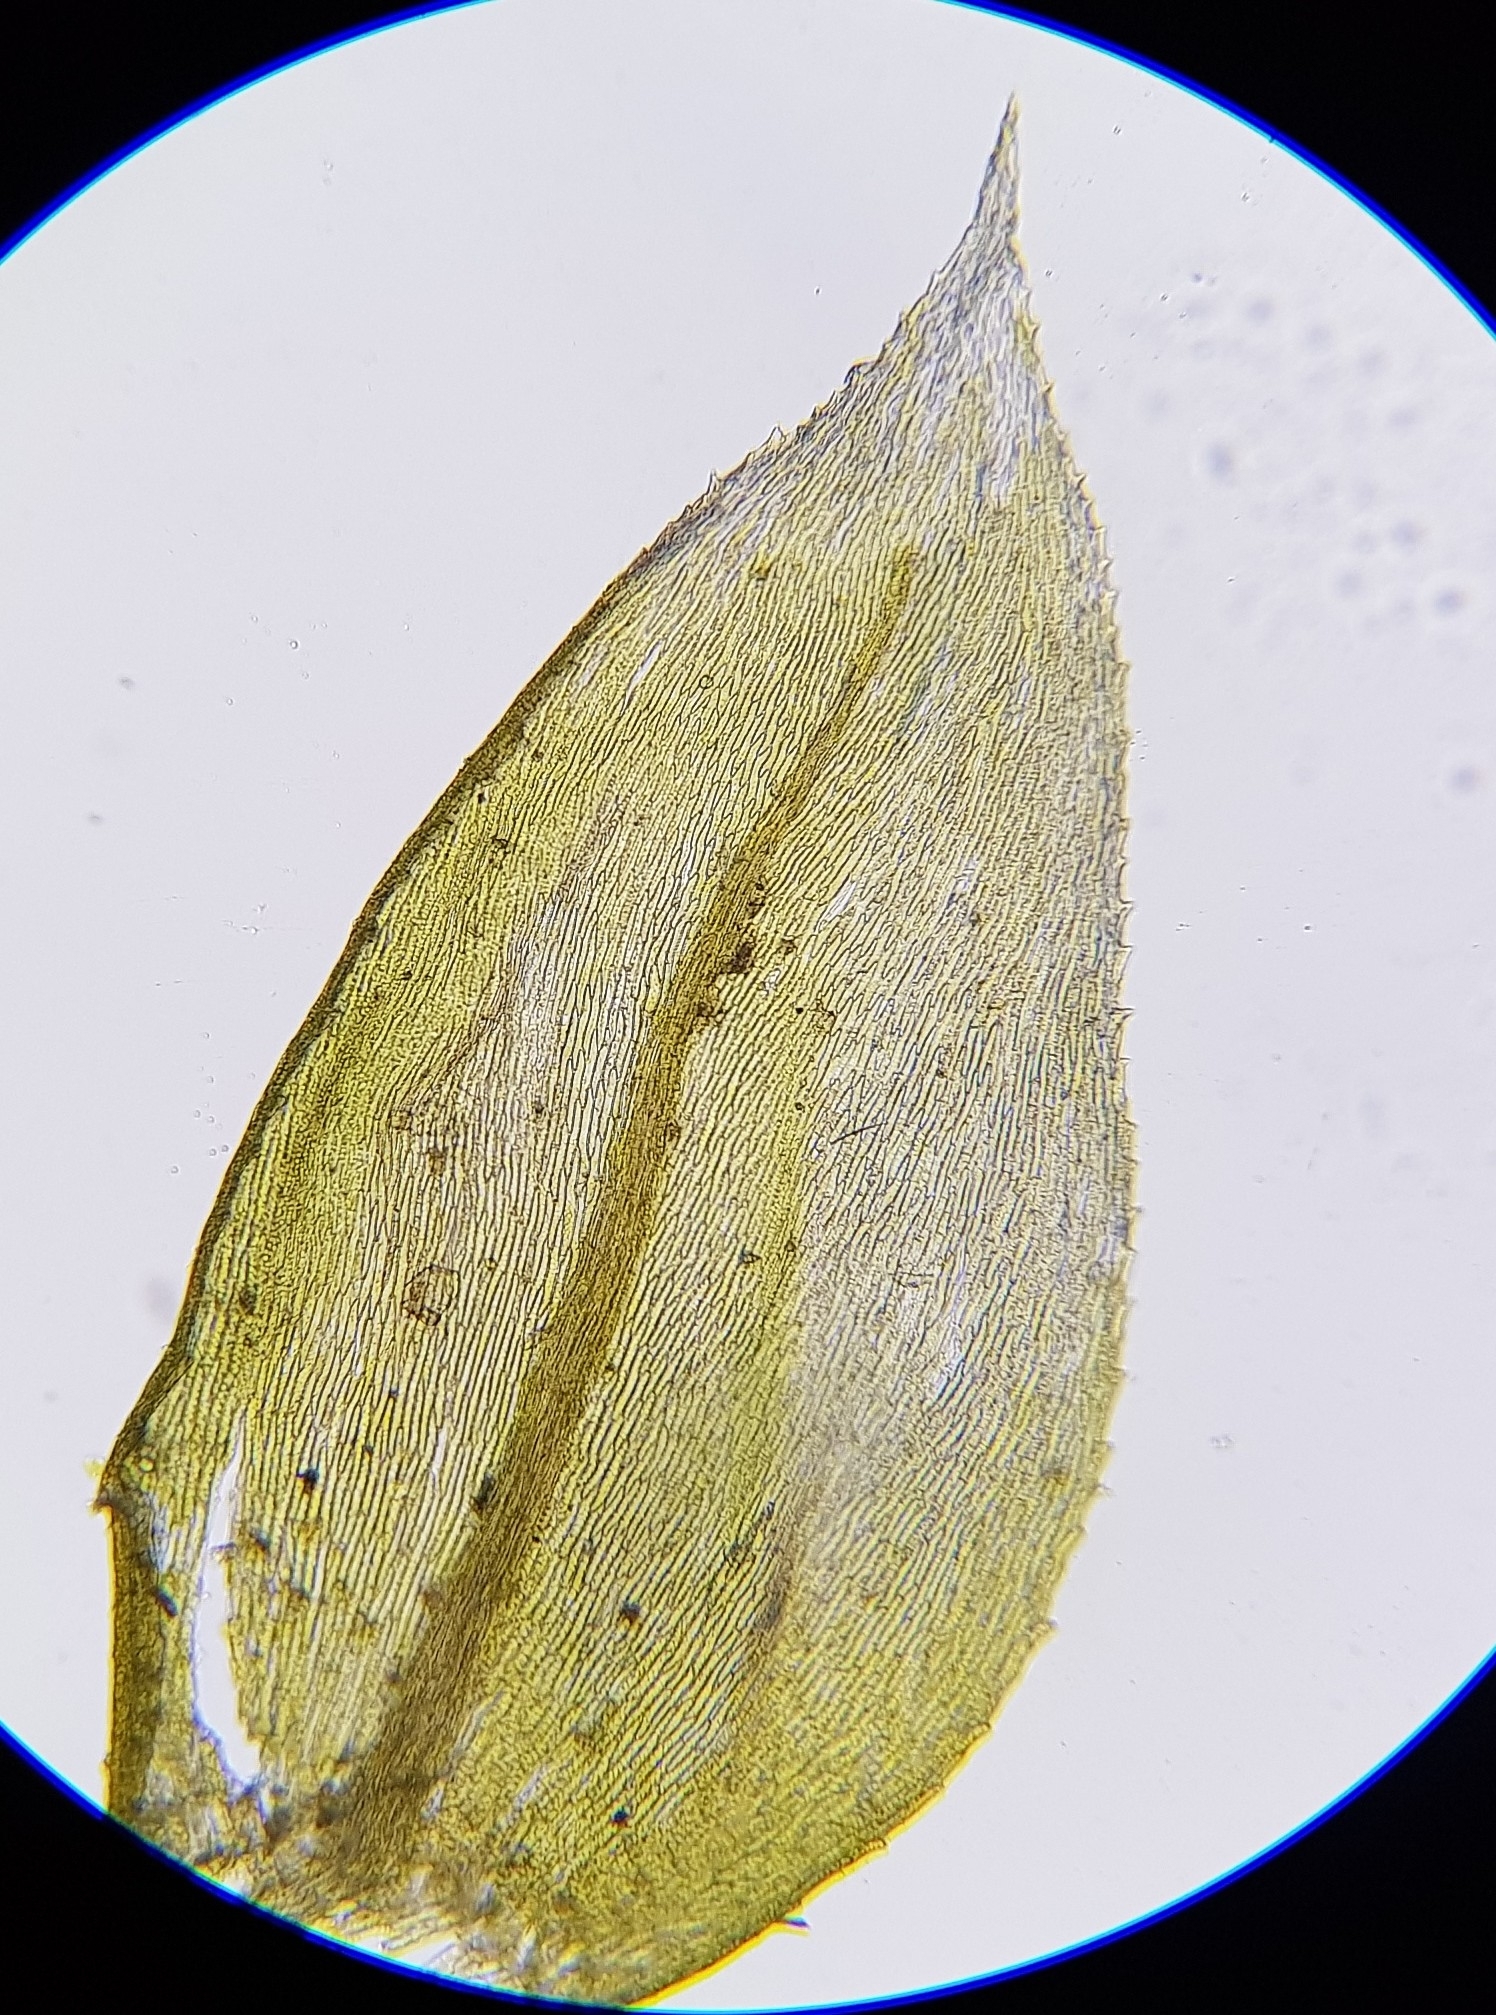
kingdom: Plantae
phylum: Bryophyta
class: Bryopsida
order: Hypnales
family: Brachytheciaceae
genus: Oxyrrhynchium
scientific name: Oxyrrhynchium hians
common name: Spreading beaked moss
